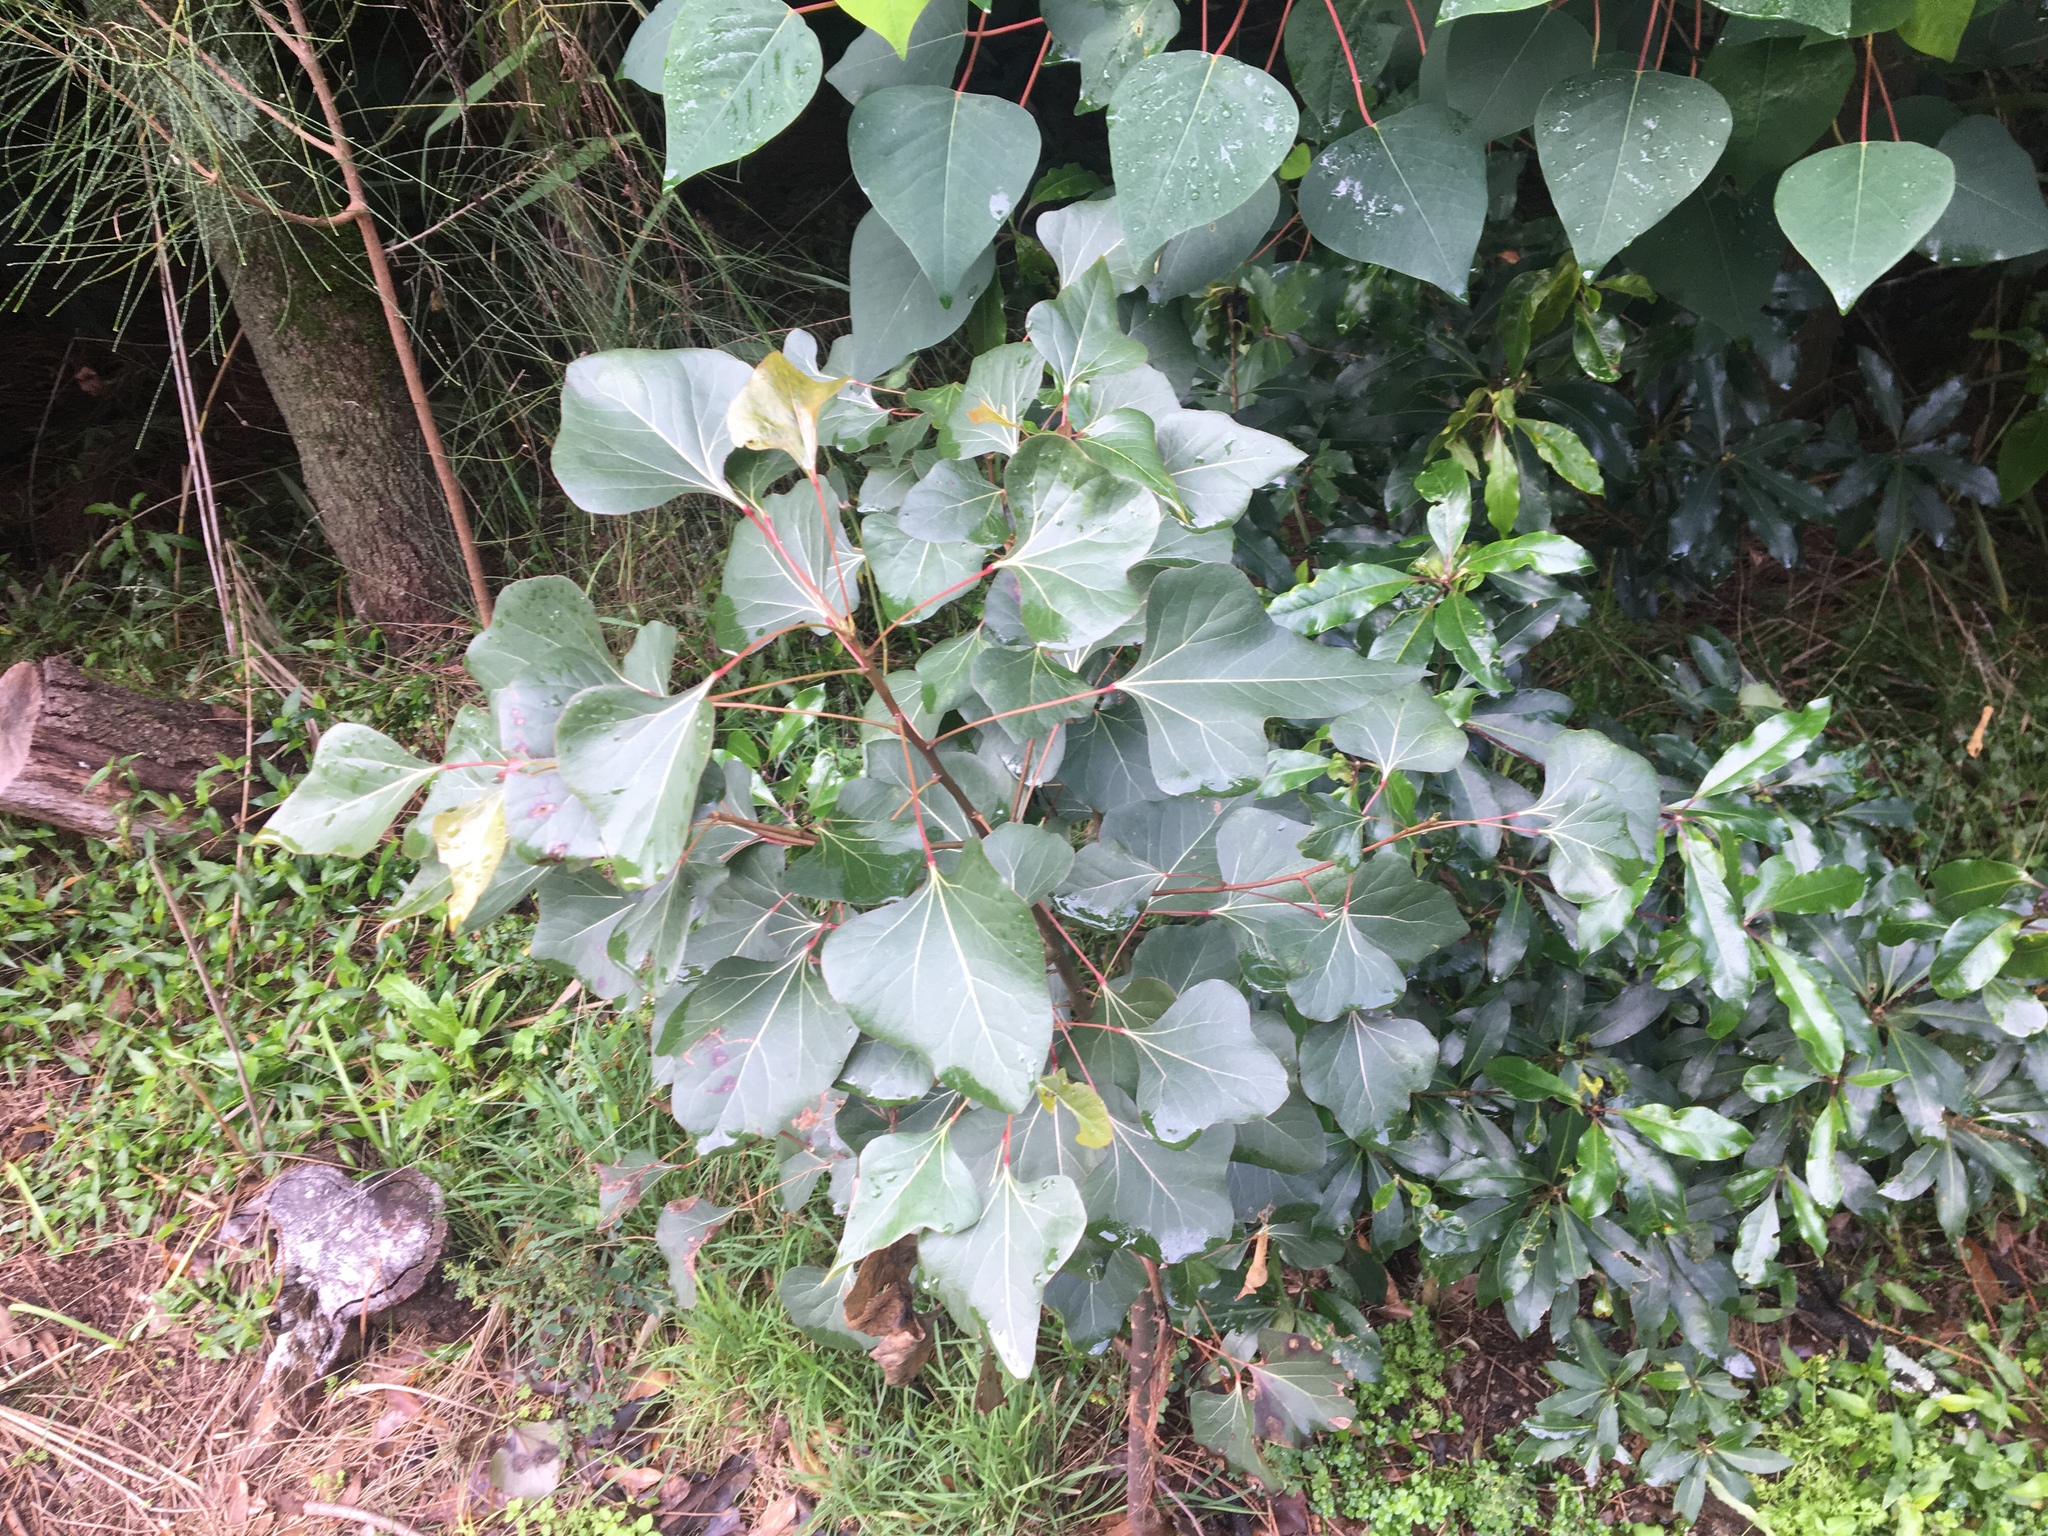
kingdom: Plantae
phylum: Tracheophyta
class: Magnoliopsida
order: Malvales
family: Malvaceae
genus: Brachychiton
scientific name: Brachychiton populneus
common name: Kurrajong
